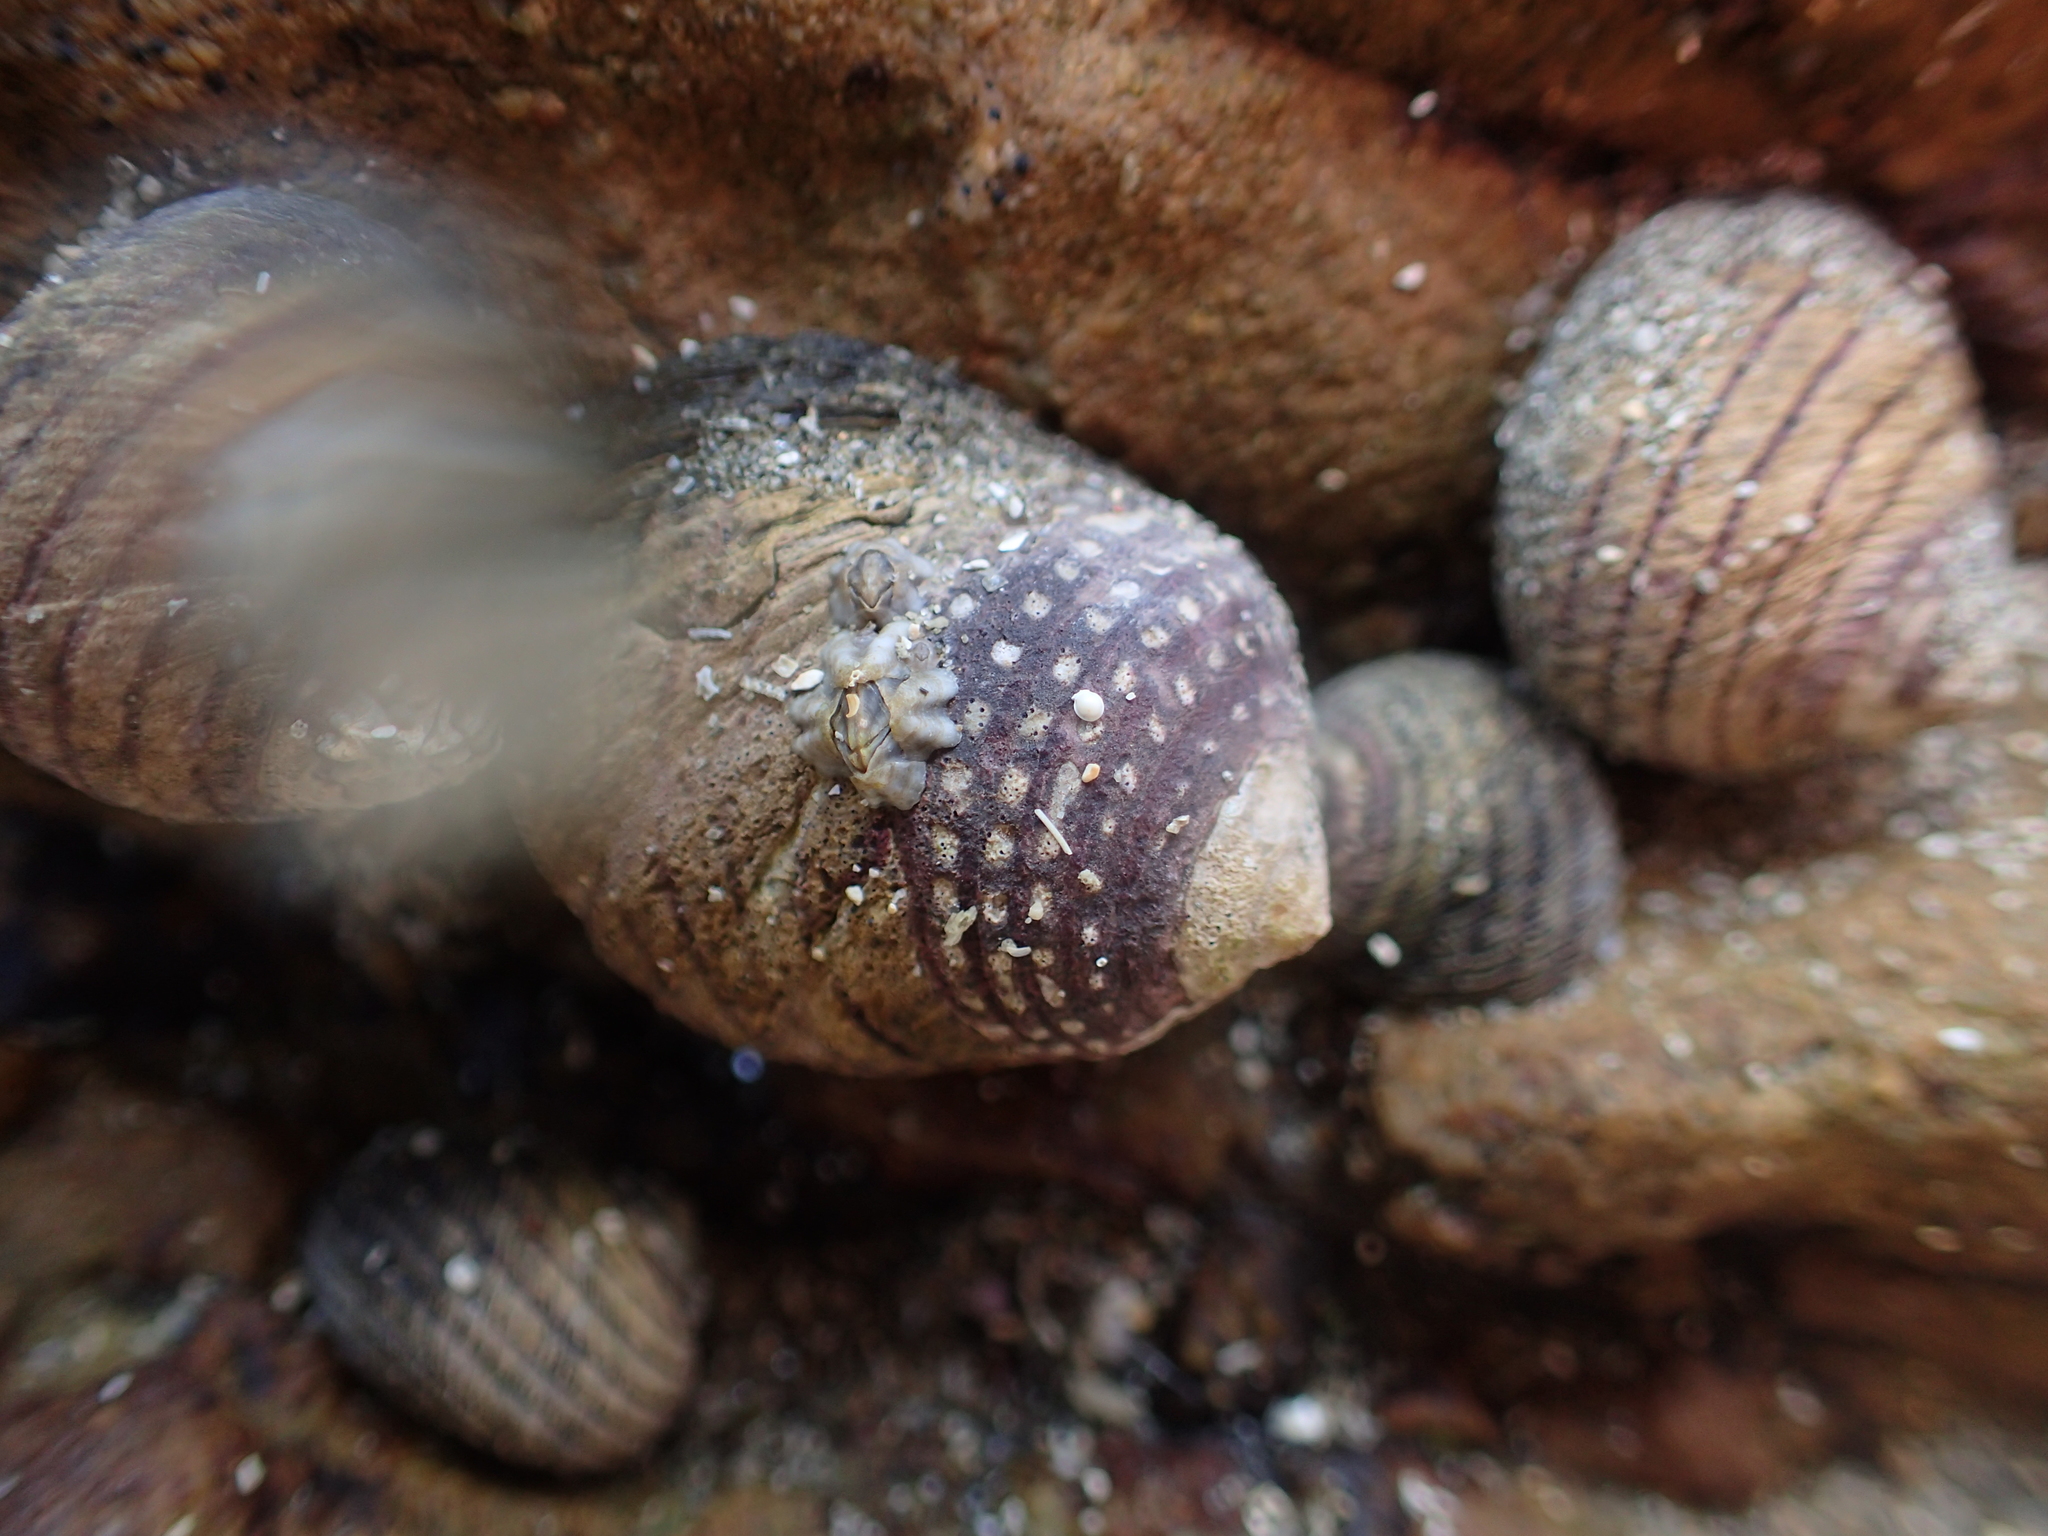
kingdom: Animalia
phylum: Mollusca
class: Gastropoda
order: Trochida
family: Trochidae
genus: Diloma
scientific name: Diloma aethiops
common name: Scorched monodont
